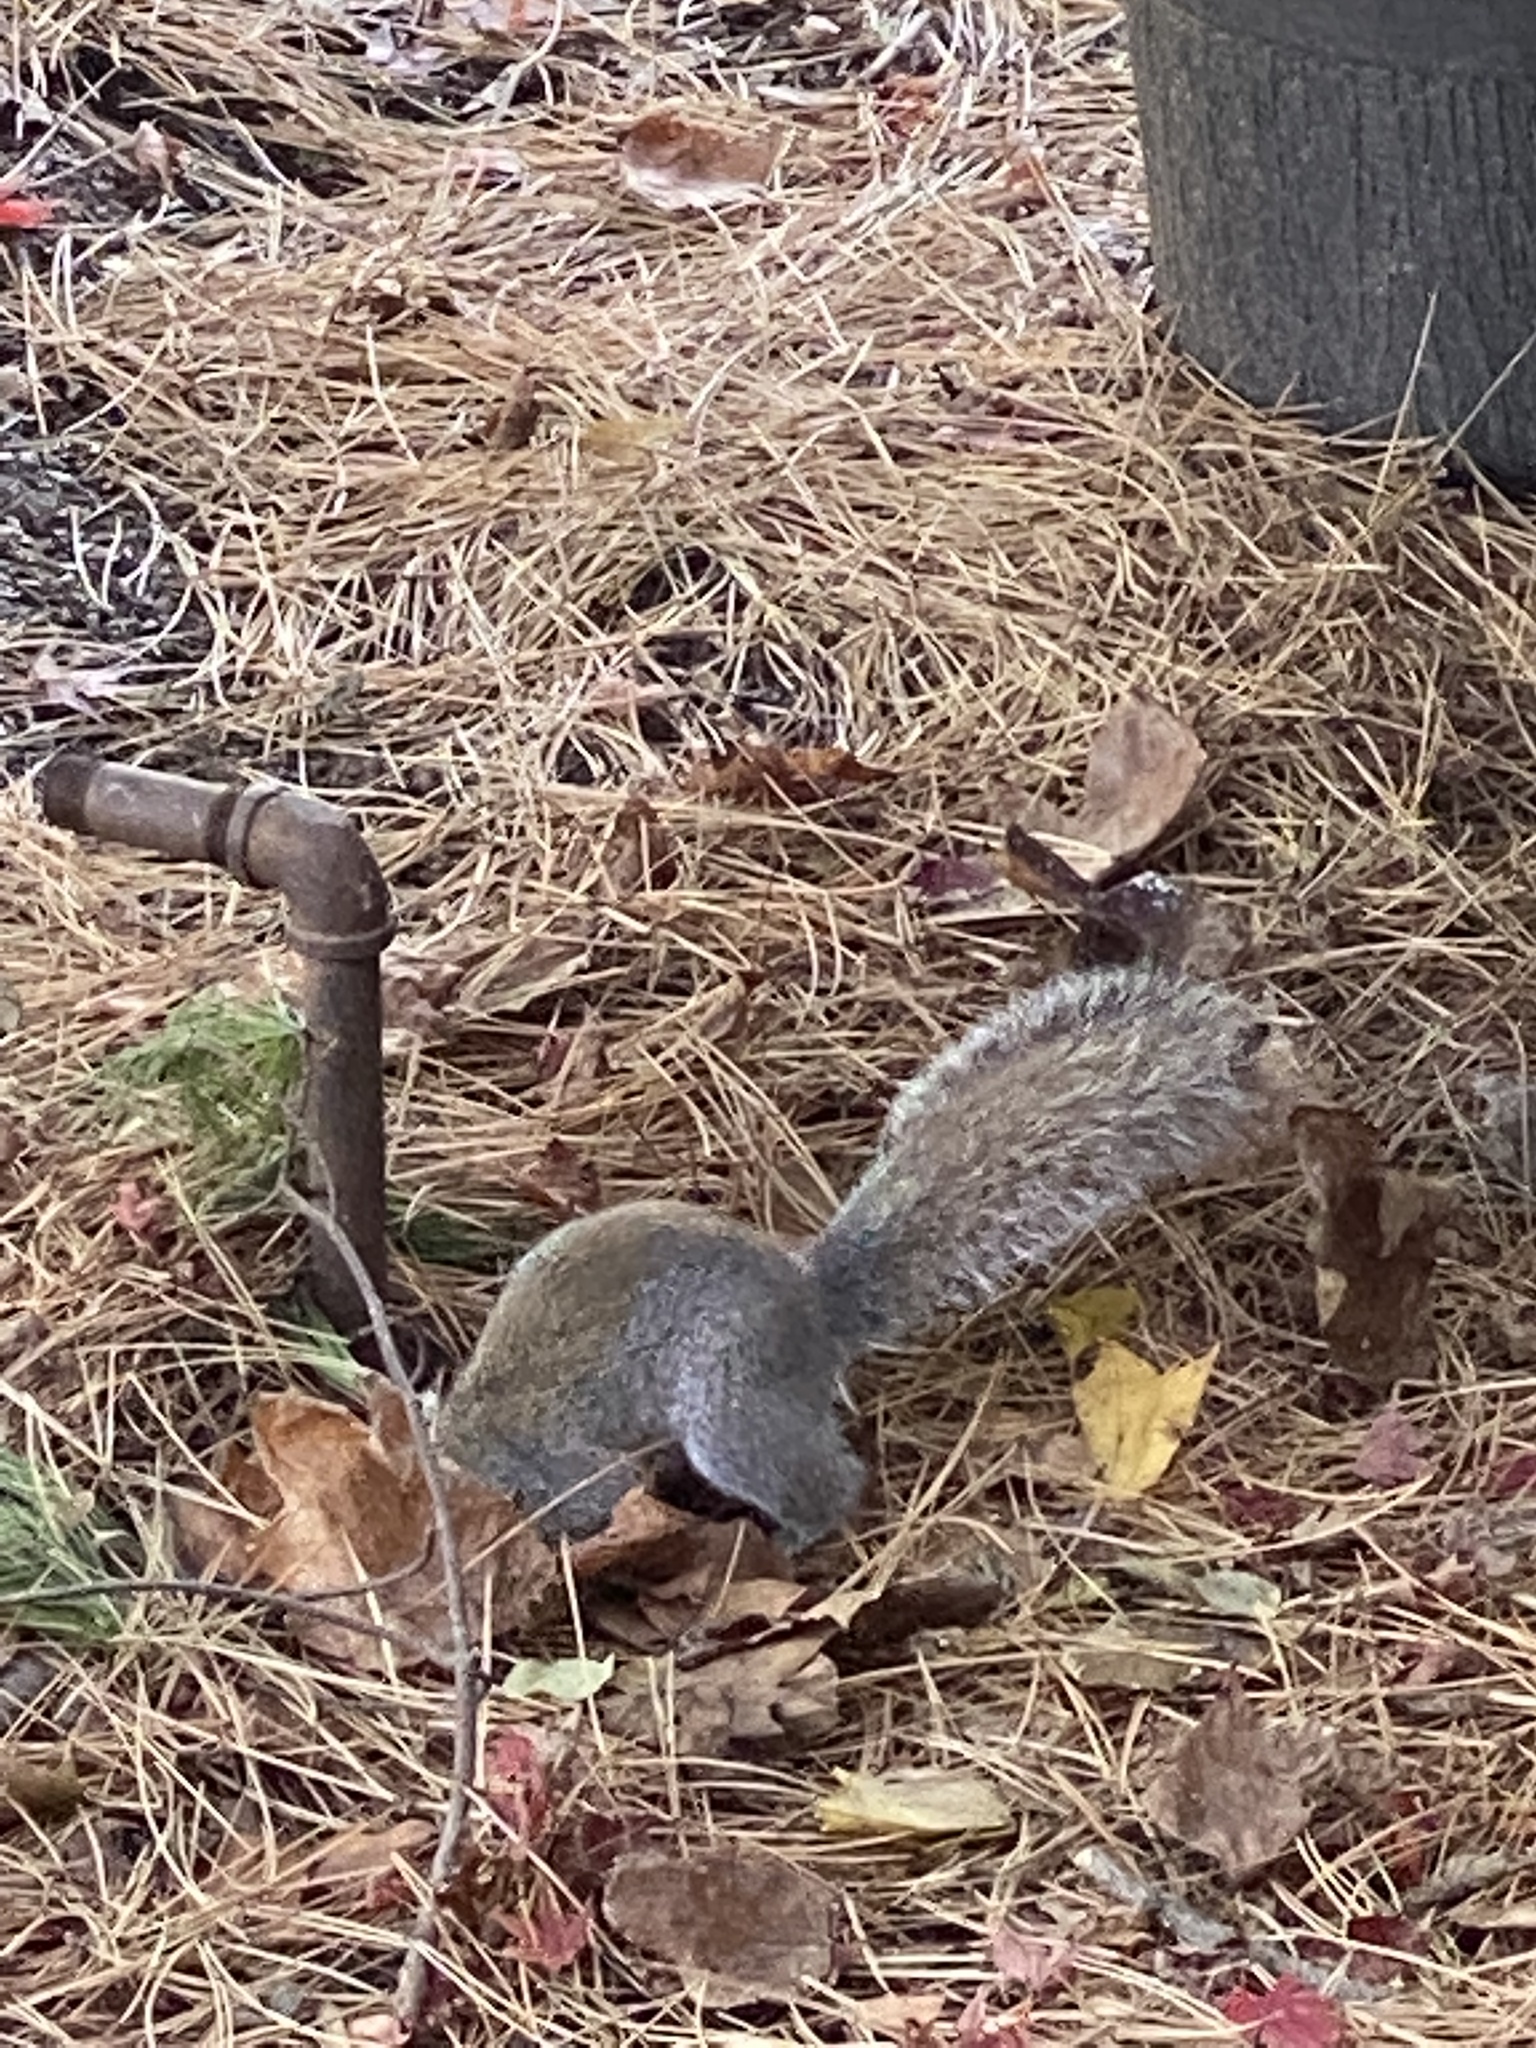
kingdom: Animalia
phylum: Chordata
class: Mammalia
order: Rodentia
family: Sciuridae
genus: Sciurus
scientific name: Sciurus carolinensis
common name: Eastern gray squirrel
